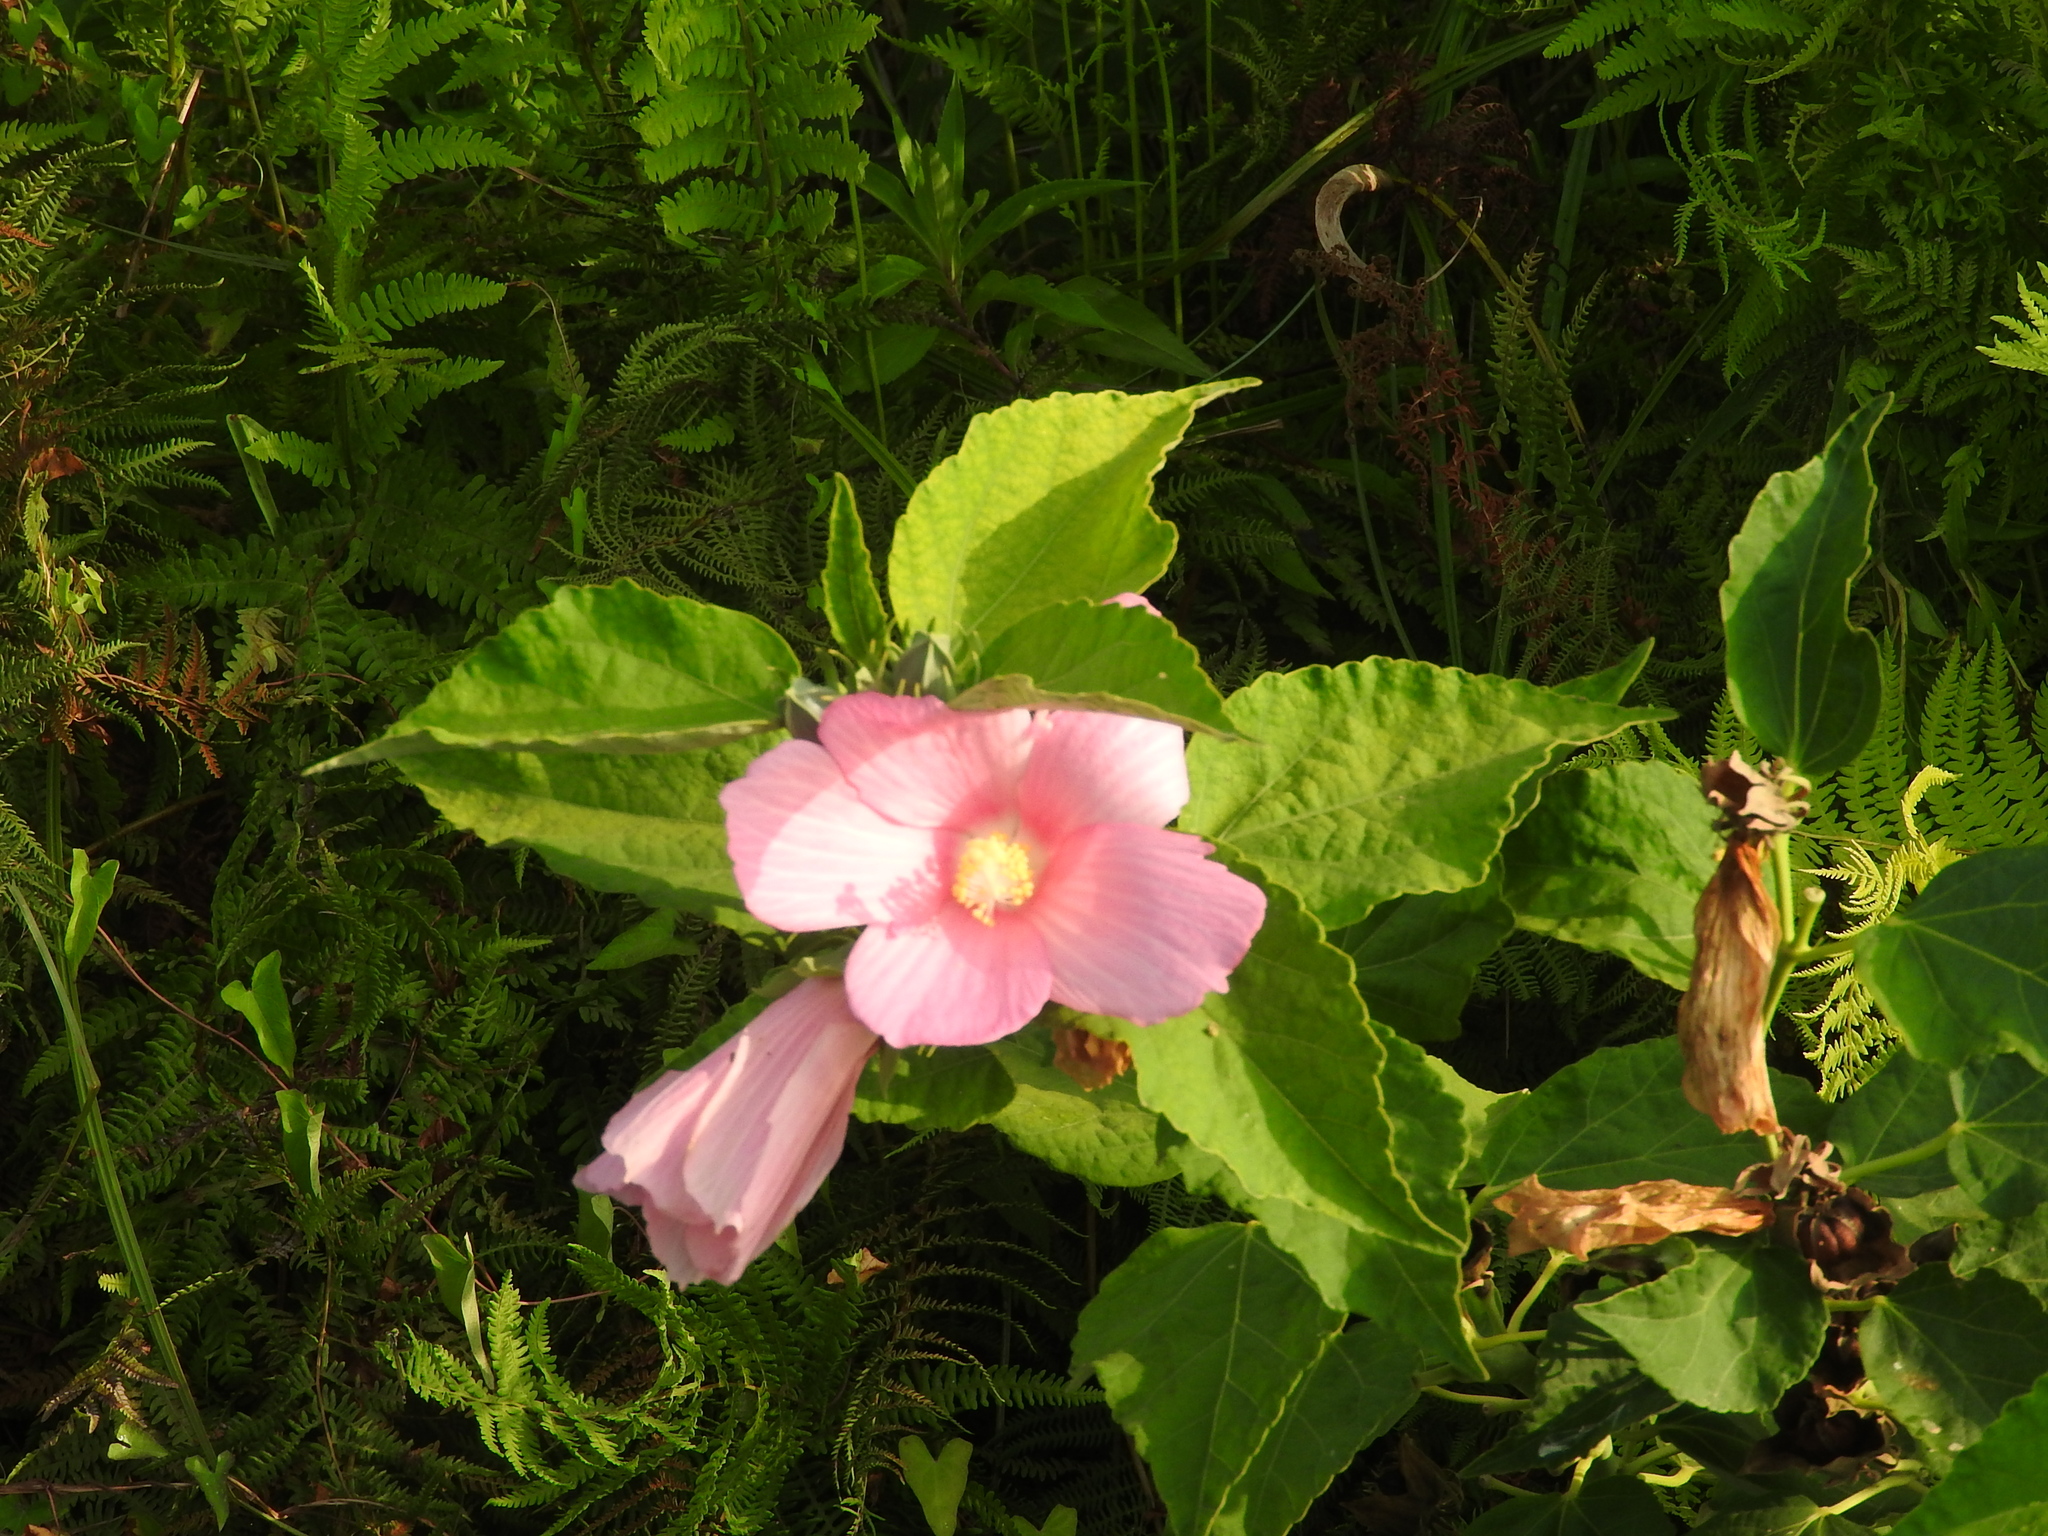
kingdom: Plantae
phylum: Tracheophyta
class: Magnoliopsida
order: Malvales
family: Malvaceae
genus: Hibiscus
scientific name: Hibiscus moscheutos
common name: Common rose-mallow
